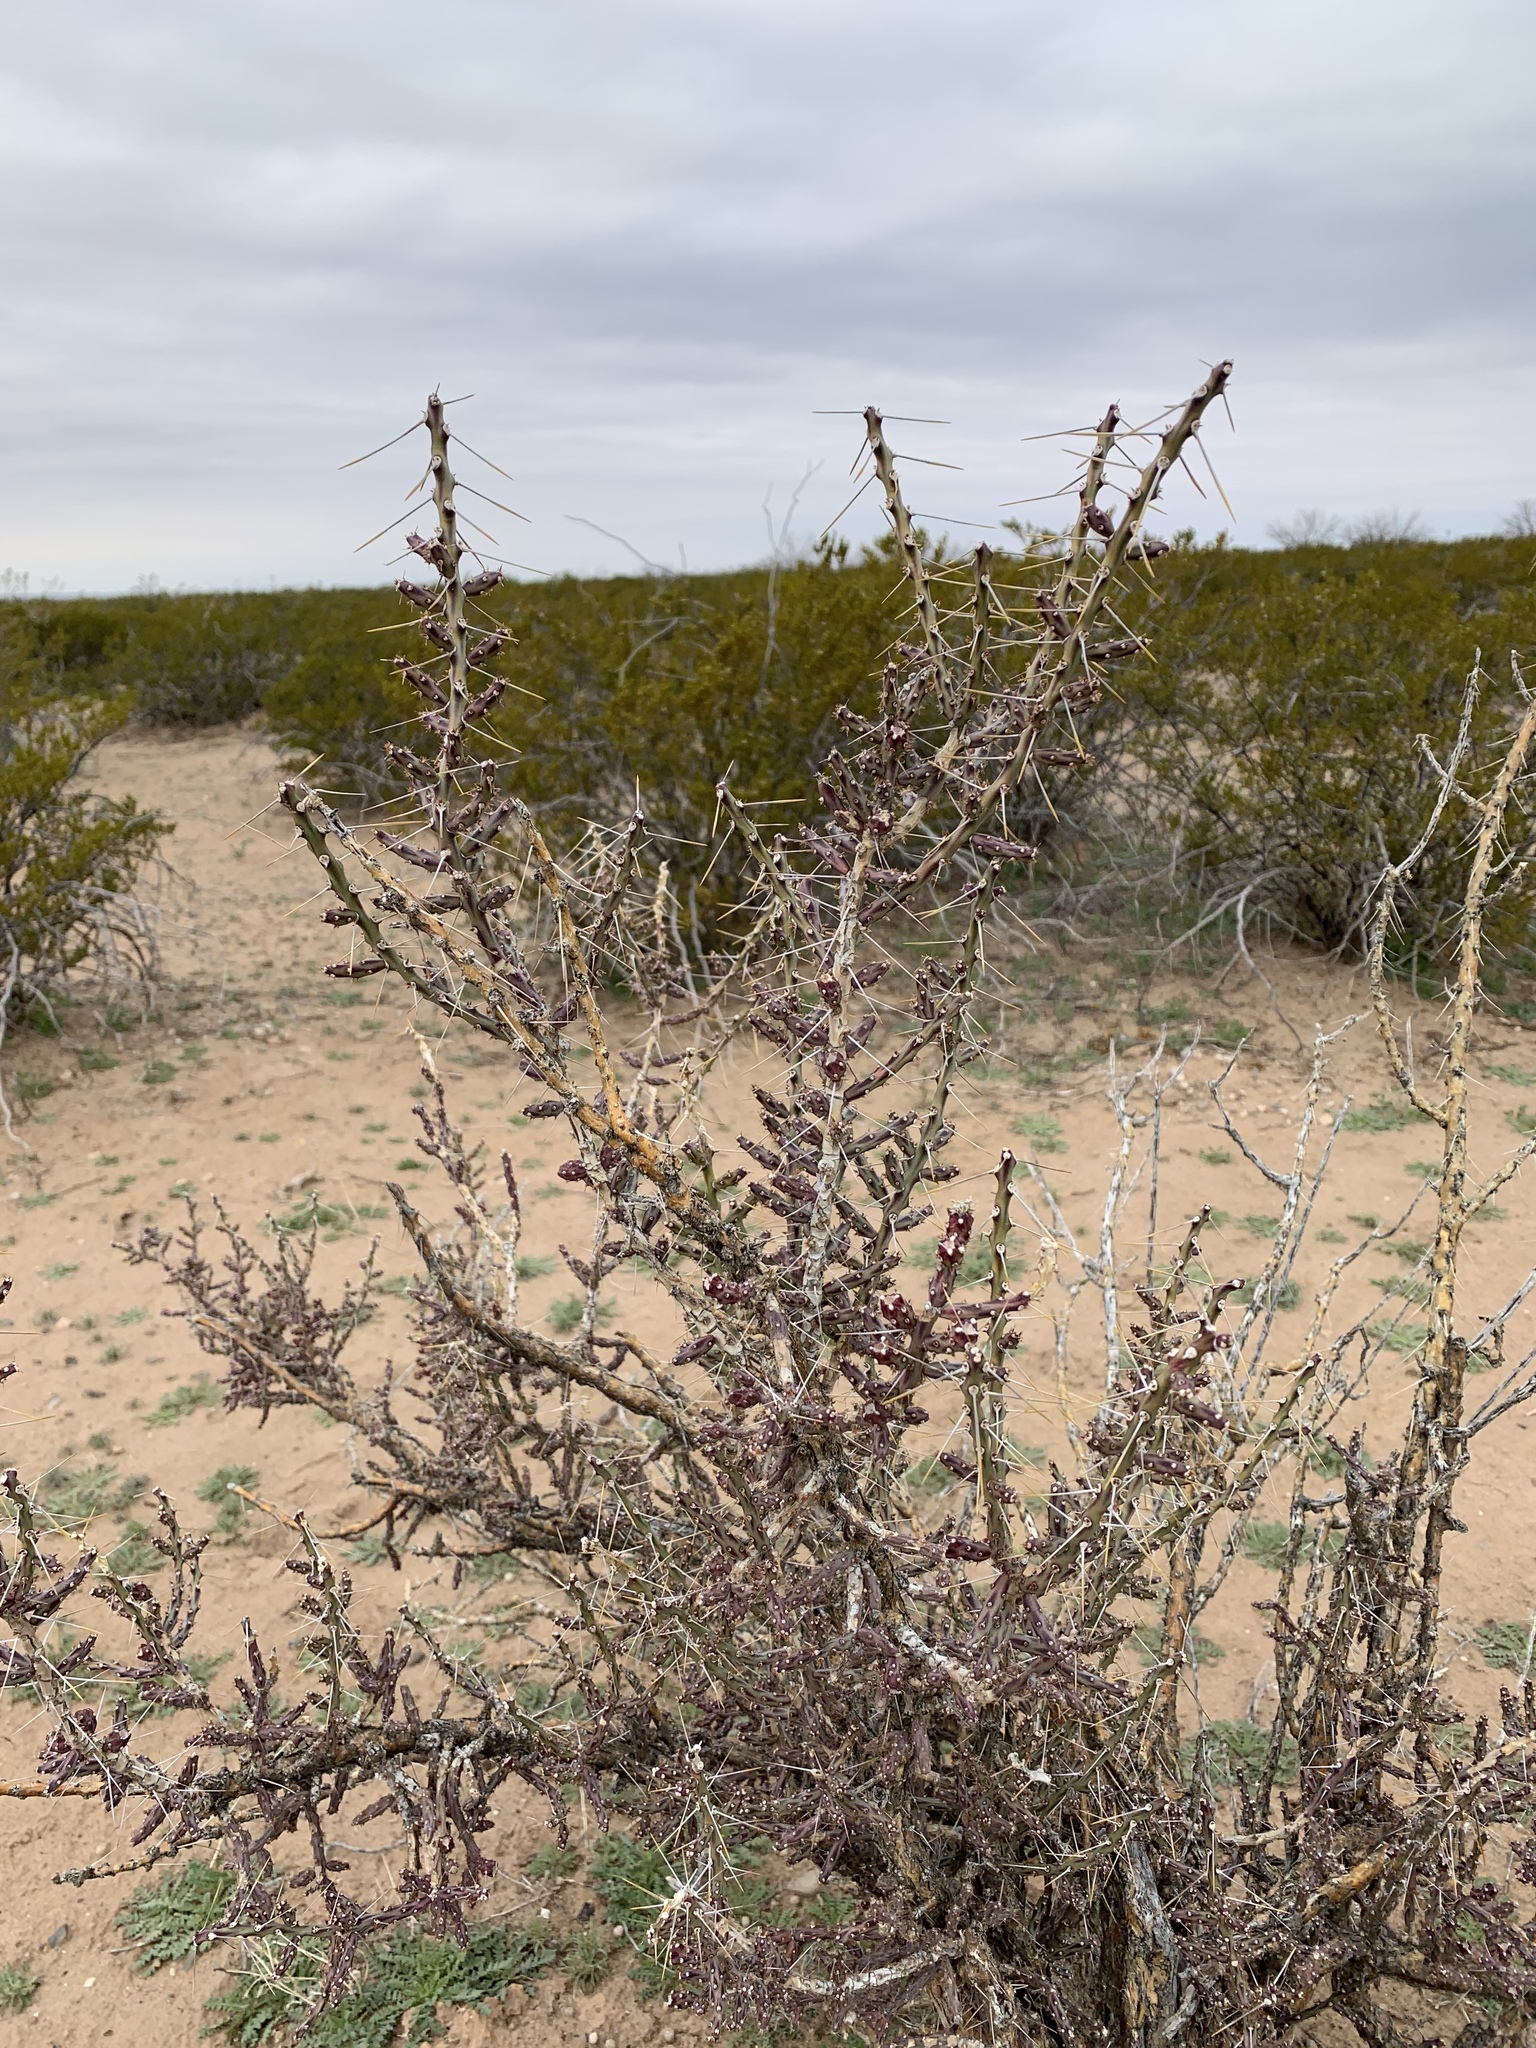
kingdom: Plantae
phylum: Tracheophyta
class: Magnoliopsida
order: Caryophyllales
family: Cactaceae
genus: Cylindropuntia
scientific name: Cylindropuntia leptocaulis
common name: Christmas cactus
